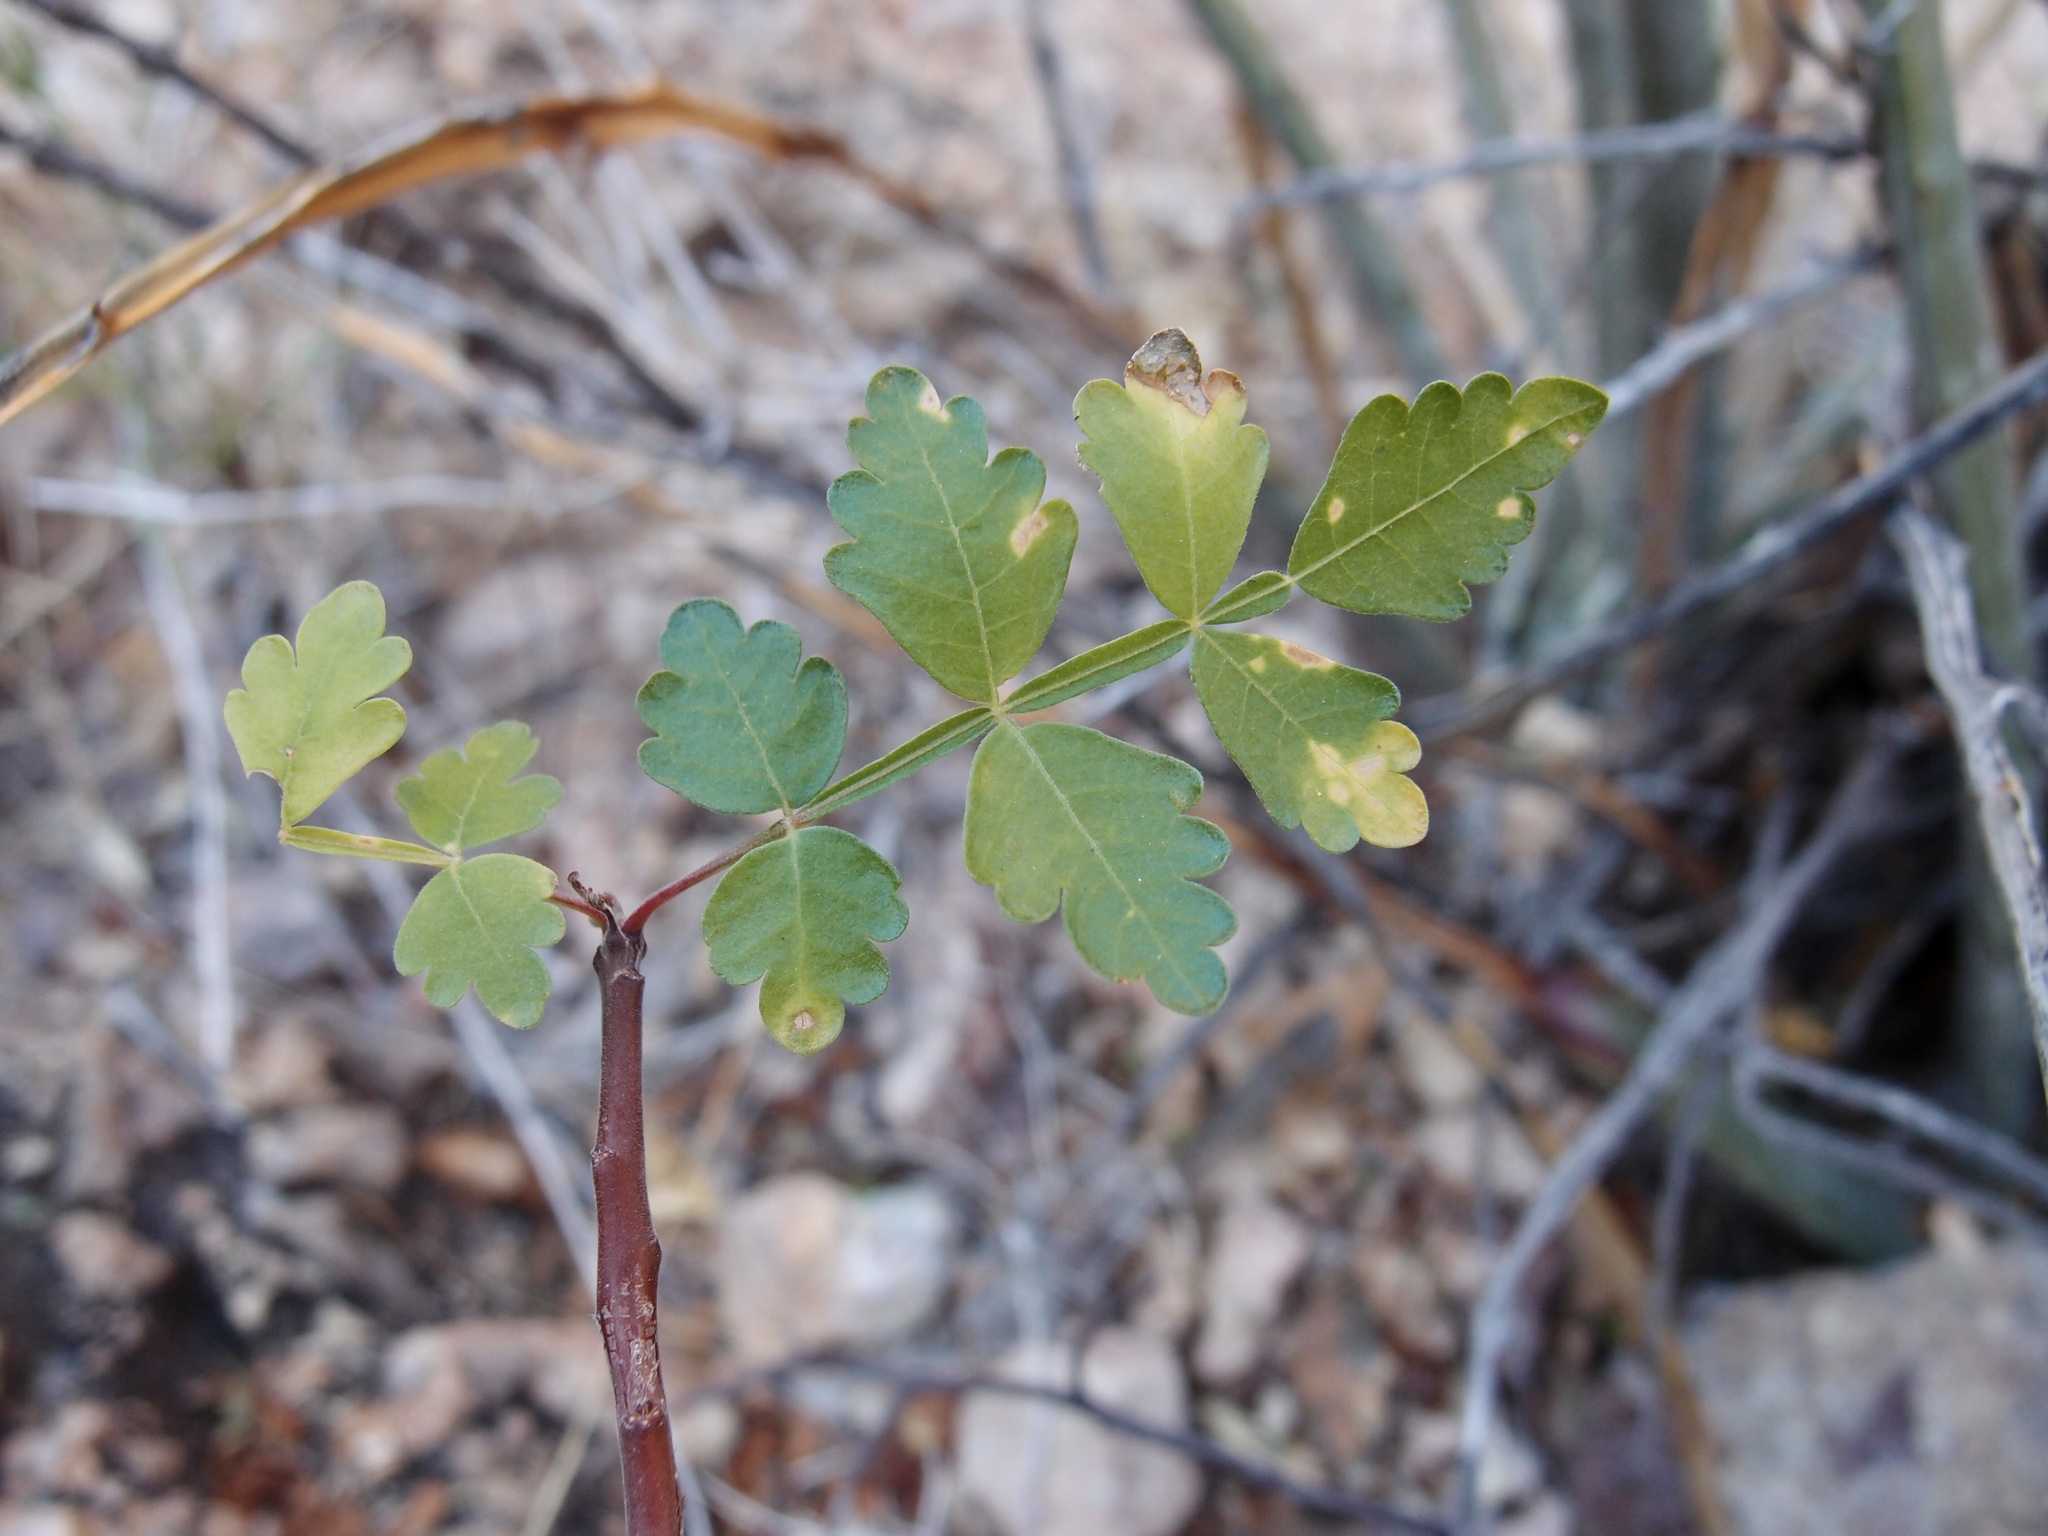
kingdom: Plantae
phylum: Tracheophyta
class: Magnoliopsida
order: Sapindales
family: Burseraceae
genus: Bursera
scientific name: Bursera laxiflora
